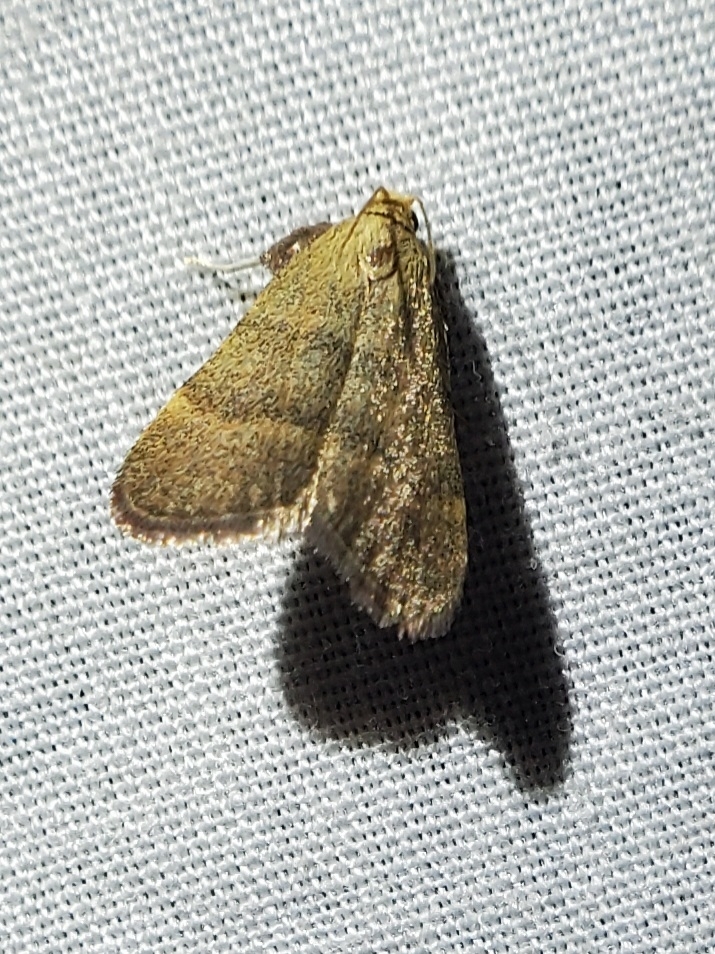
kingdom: Animalia
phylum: Arthropoda
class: Insecta
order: Lepidoptera
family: Pyralidae
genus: Condylolomia
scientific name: Condylolomia participialis
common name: Drab condylolomia moth
